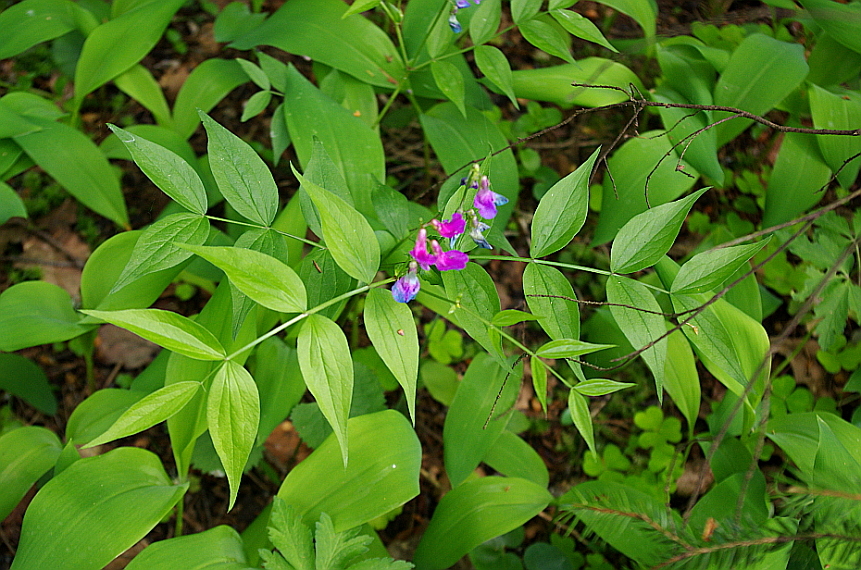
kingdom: Plantae
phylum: Tracheophyta
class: Magnoliopsida
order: Fabales
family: Fabaceae
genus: Lathyrus
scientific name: Lathyrus vernus
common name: Spring pea
